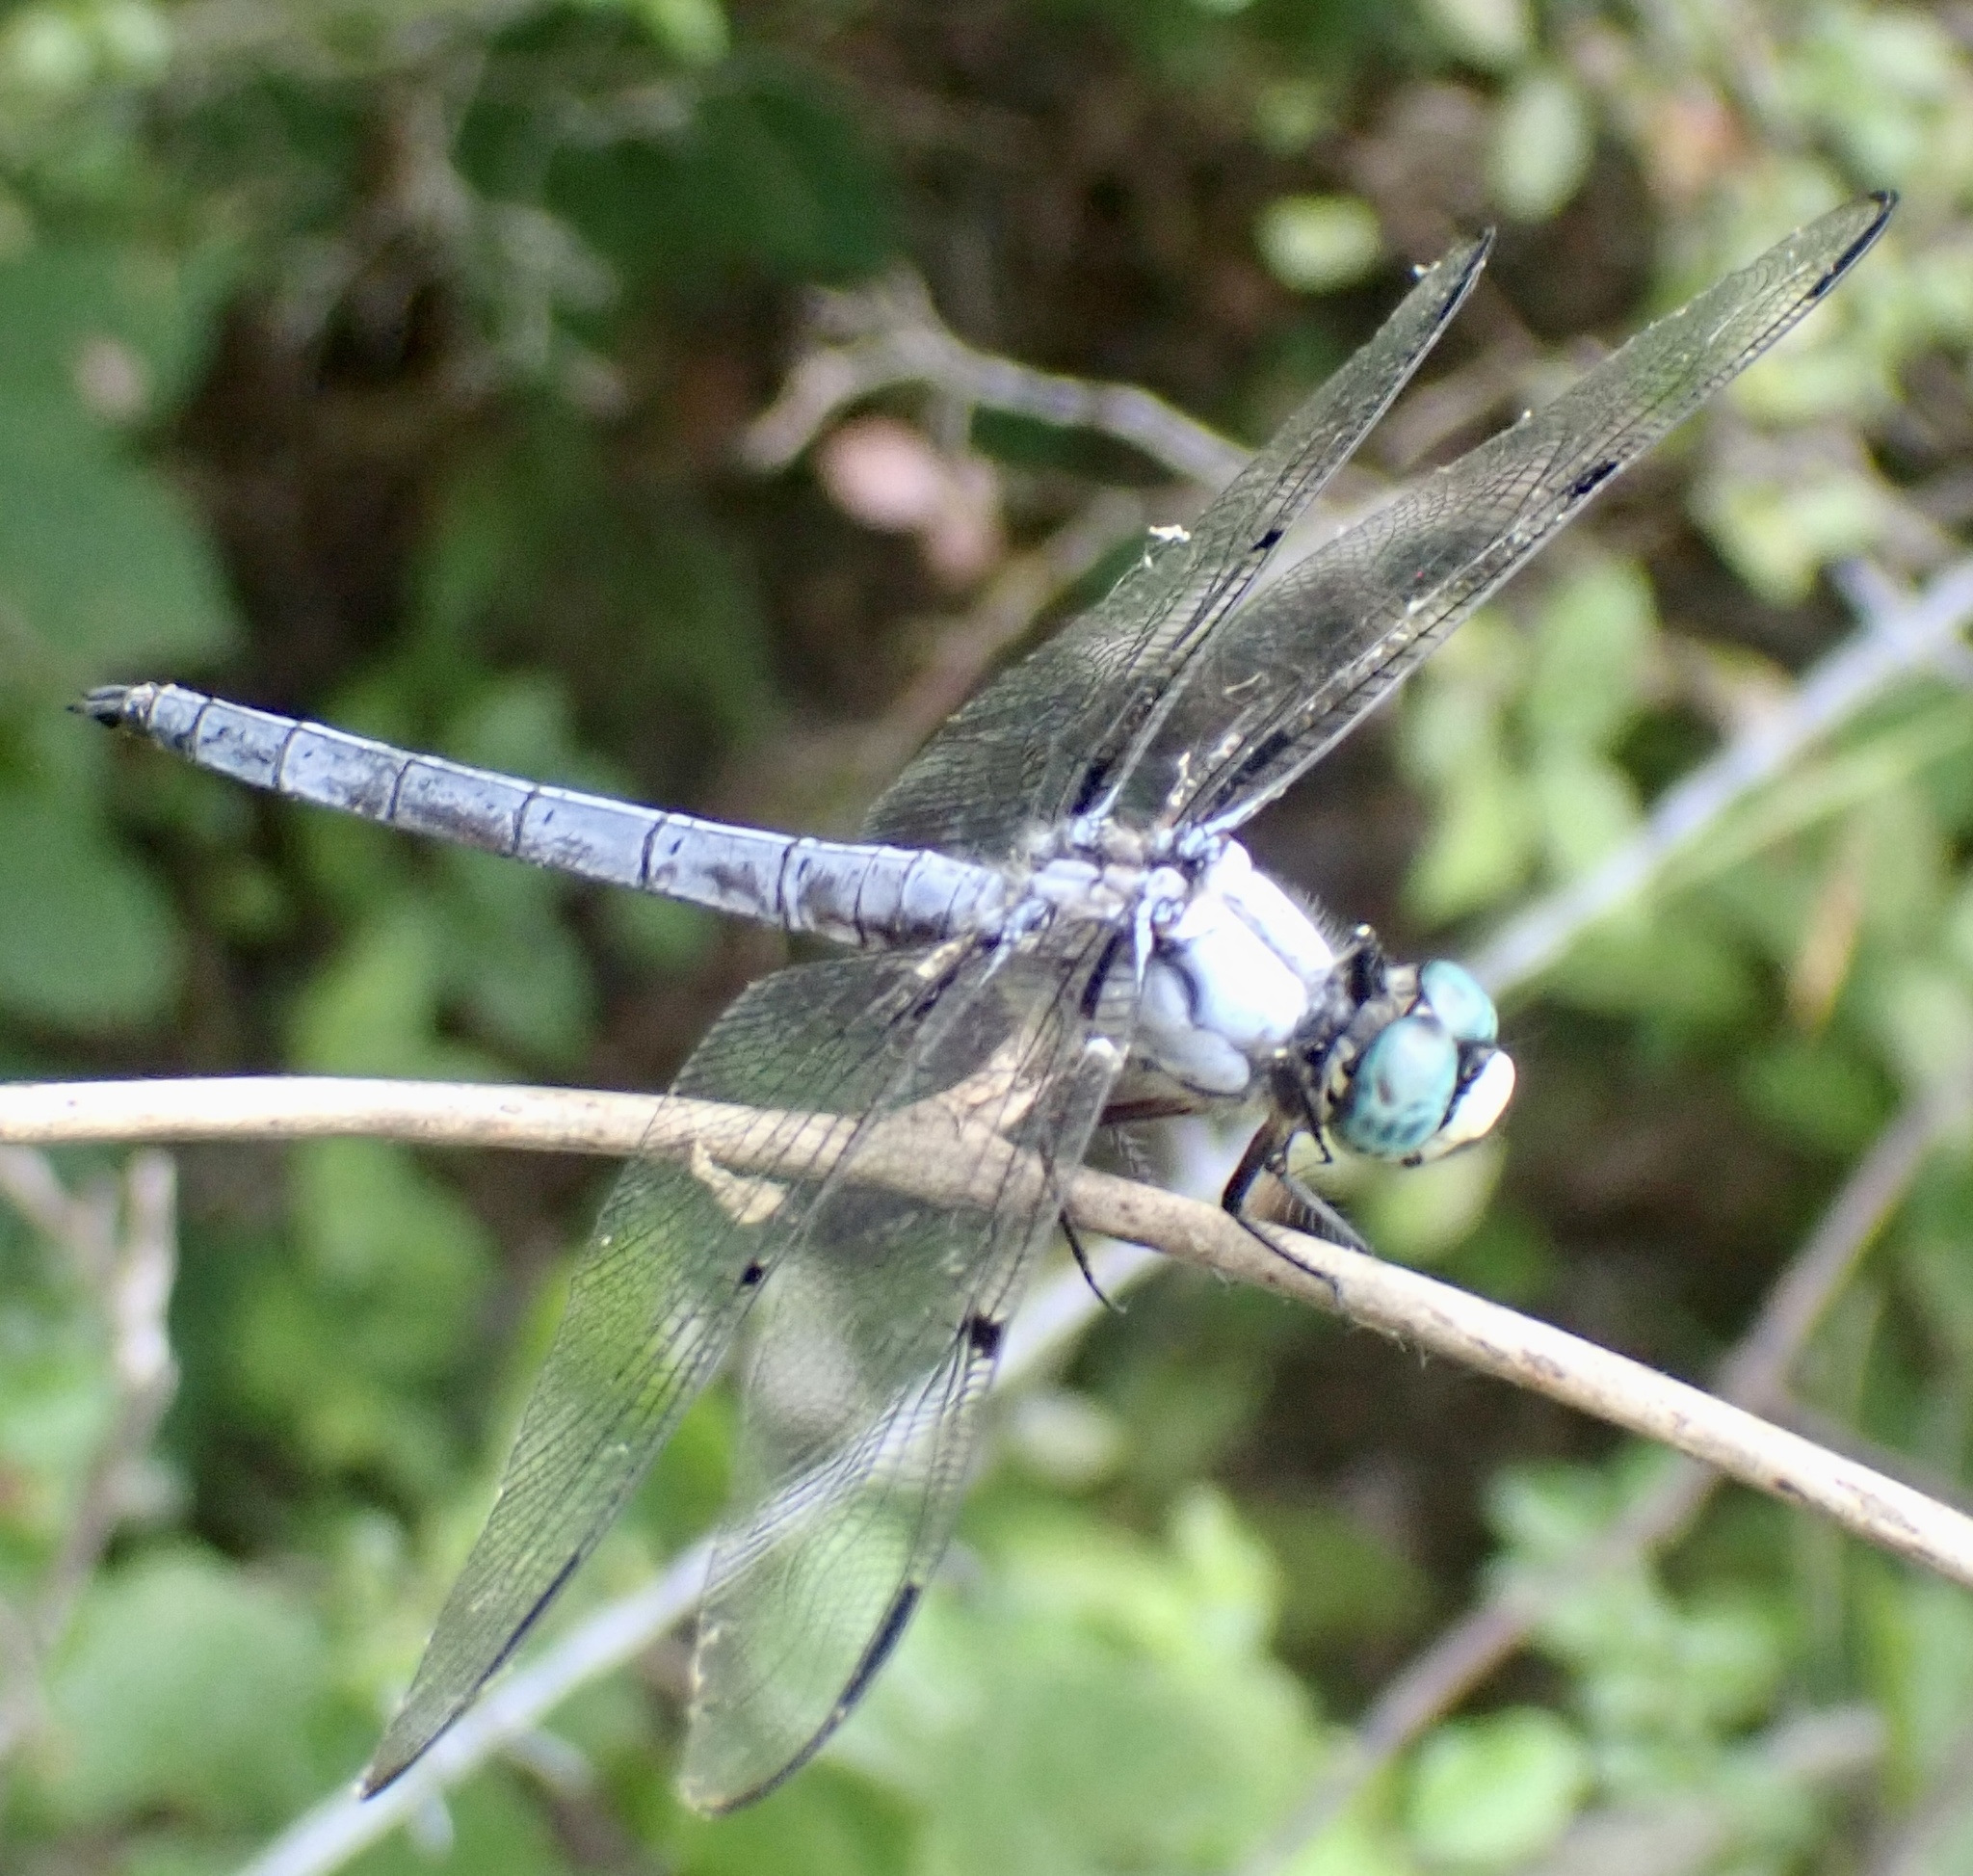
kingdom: Animalia
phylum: Arthropoda
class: Insecta
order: Odonata
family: Libellulidae
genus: Libellula
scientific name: Libellula vibrans
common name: Great blue skimmer
